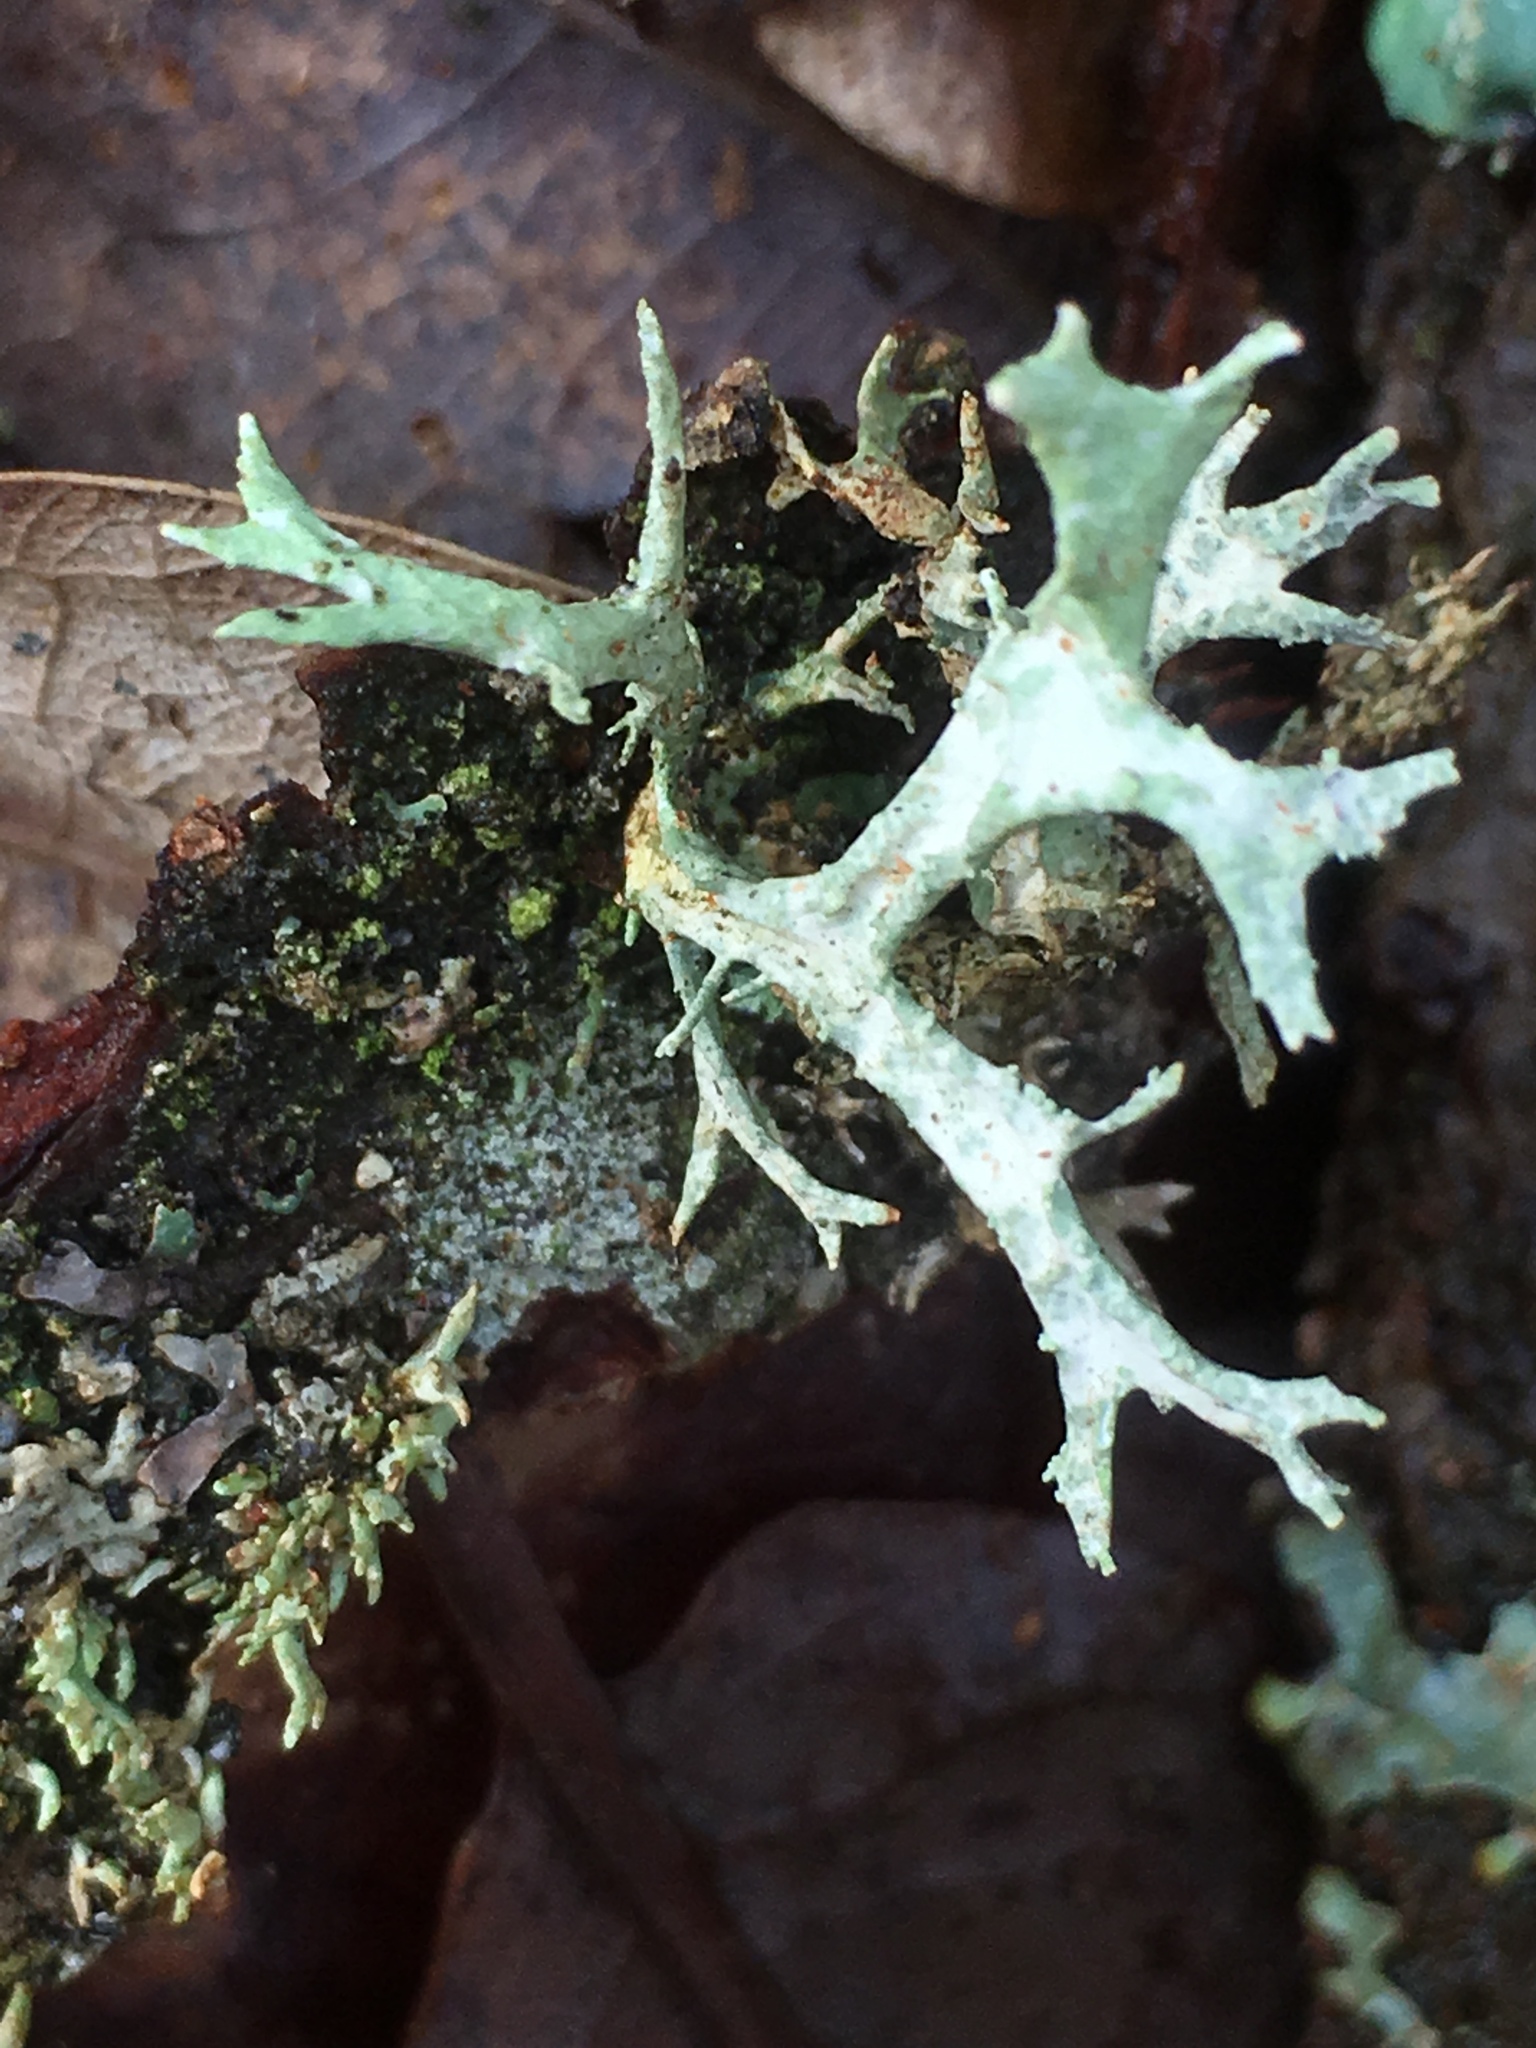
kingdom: Fungi
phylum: Ascomycota
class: Lecanoromycetes
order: Lecanorales
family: Parmeliaceae
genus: Evernia
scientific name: Evernia prunastri
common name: Oak moss
